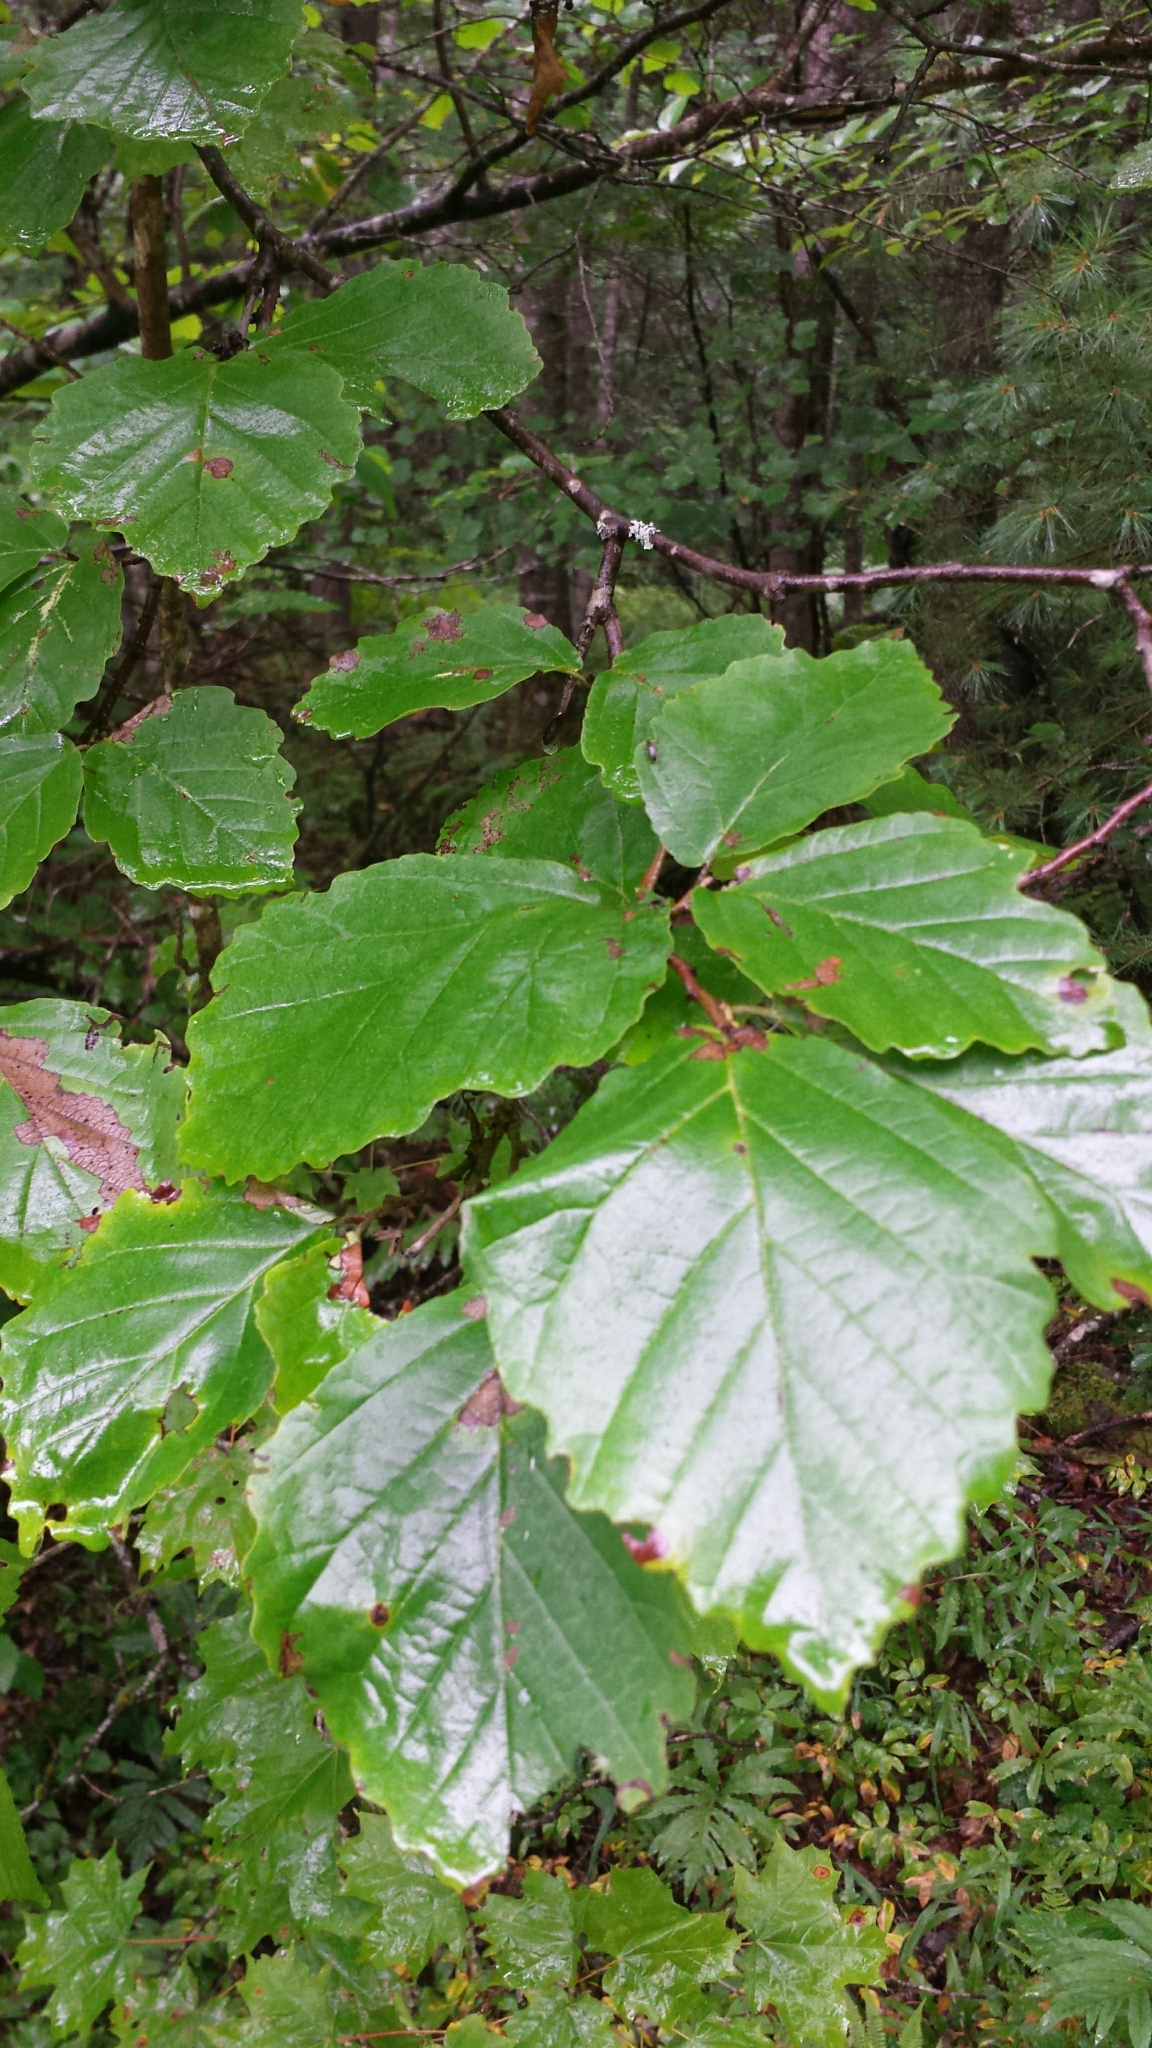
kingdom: Plantae
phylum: Tracheophyta
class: Magnoliopsida
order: Saxifragales
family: Hamamelidaceae
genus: Hamamelis
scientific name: Hamamelis virginiana
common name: Witch-hazel
